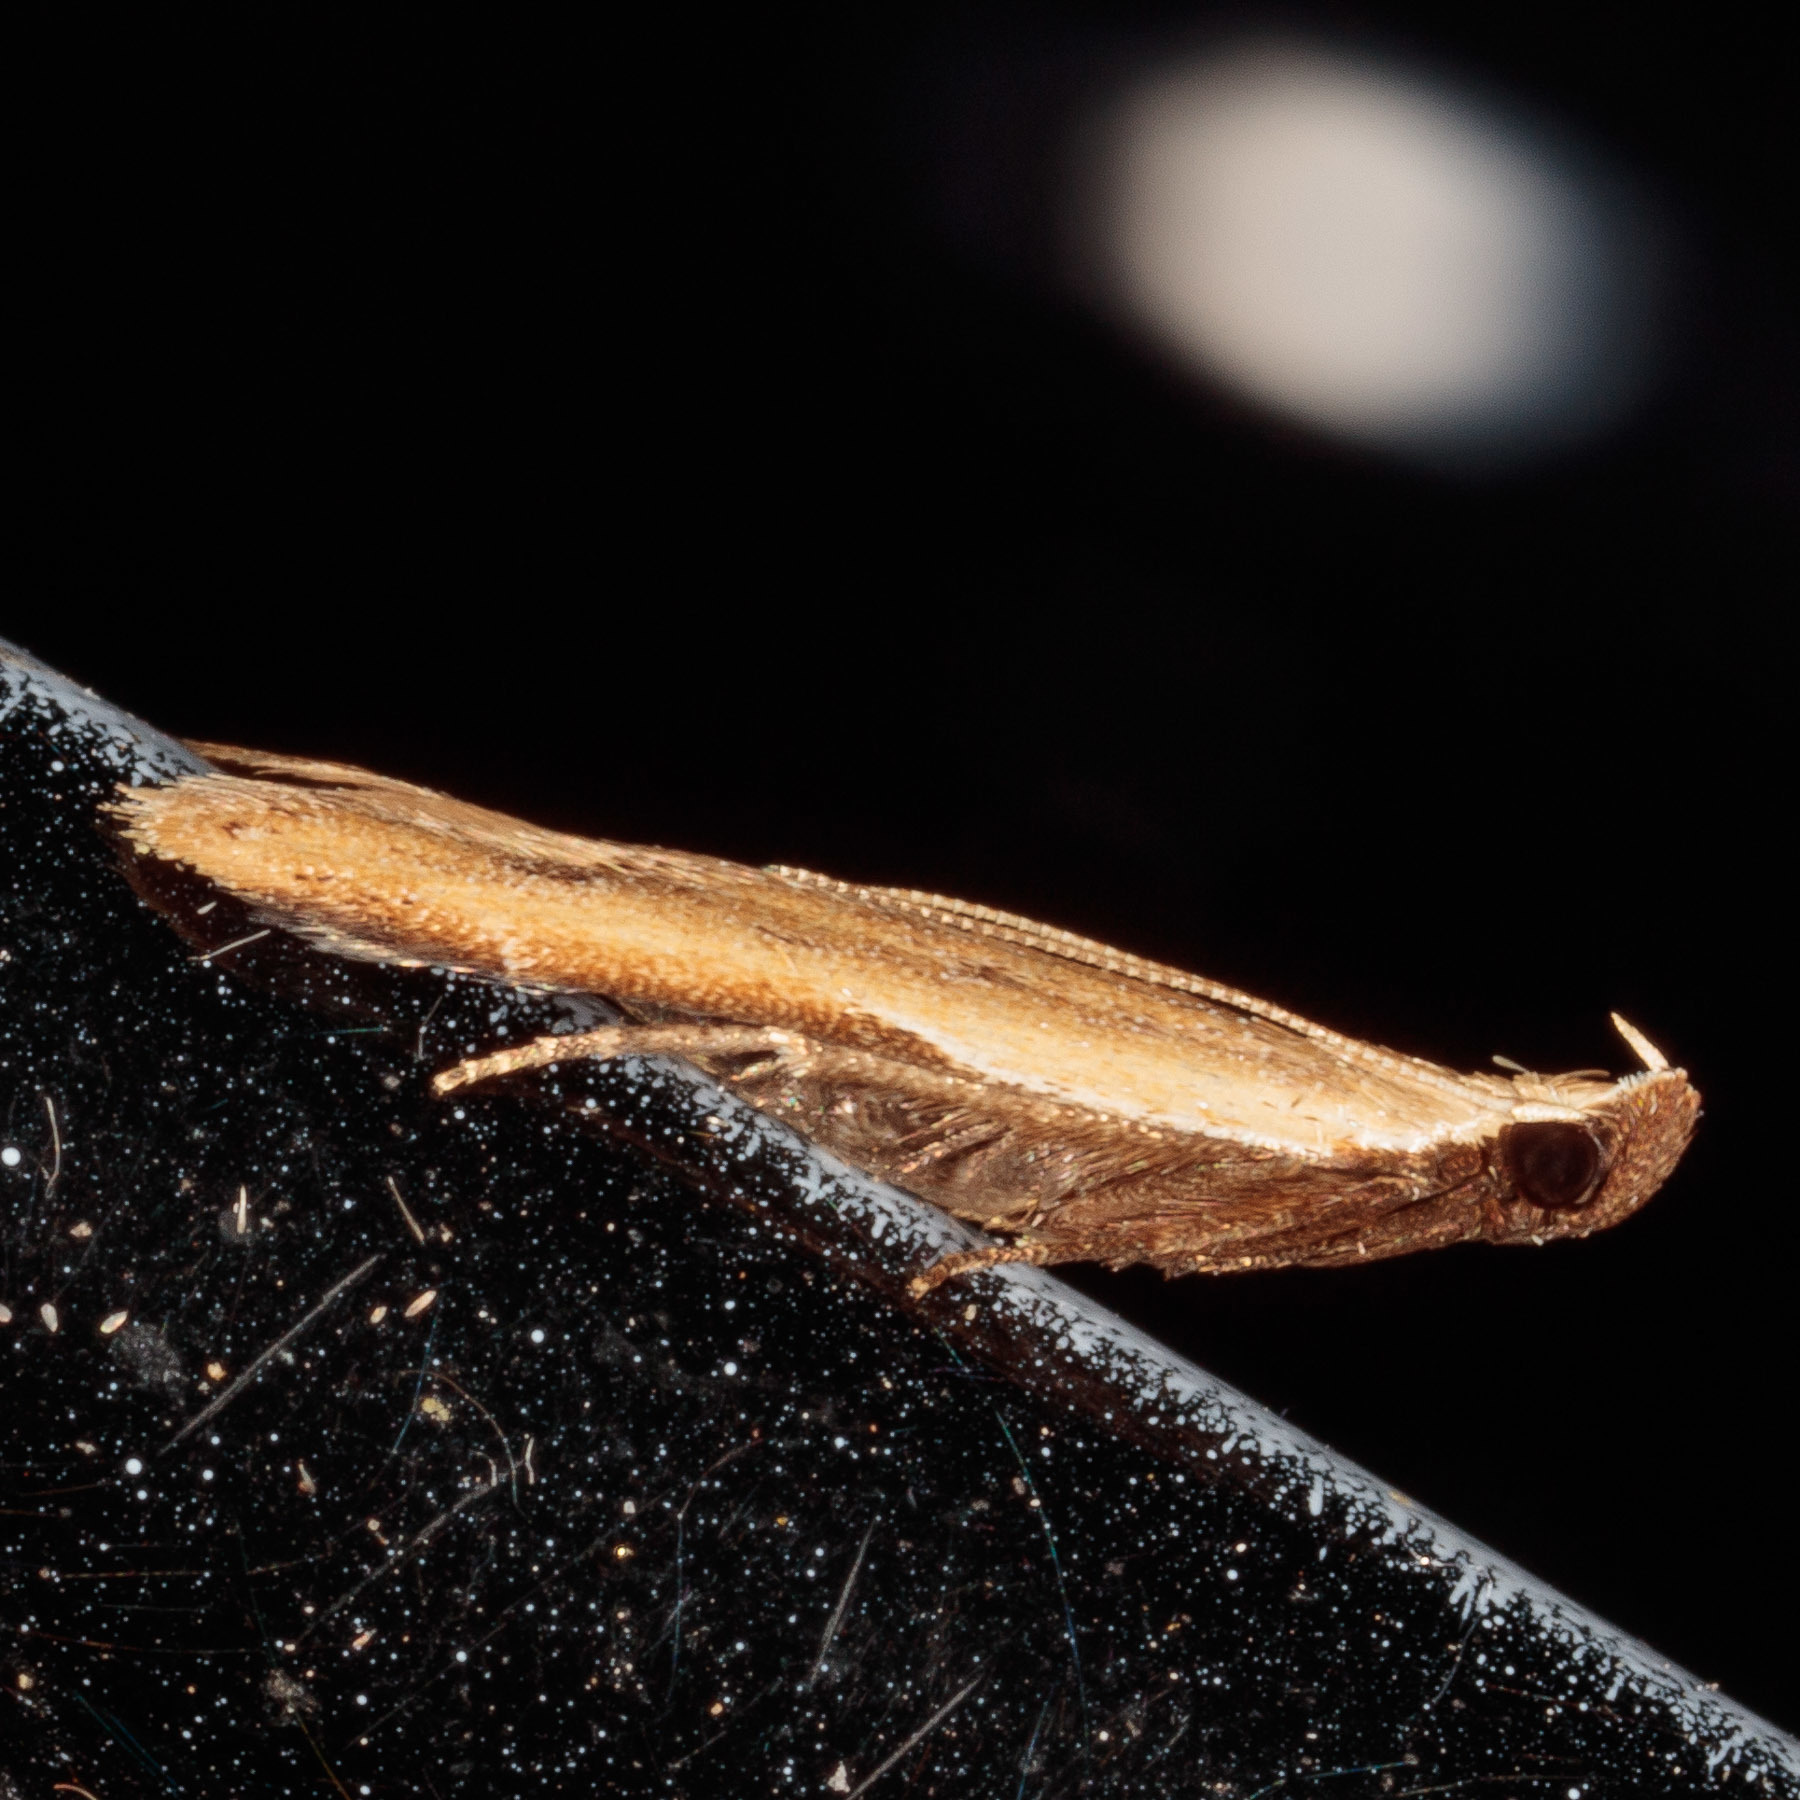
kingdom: Animalia
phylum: Arthropoda
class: Insecta
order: Lepidoptera
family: Gelechiidae
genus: Mesophleps
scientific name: Mesophleps adustipennis
